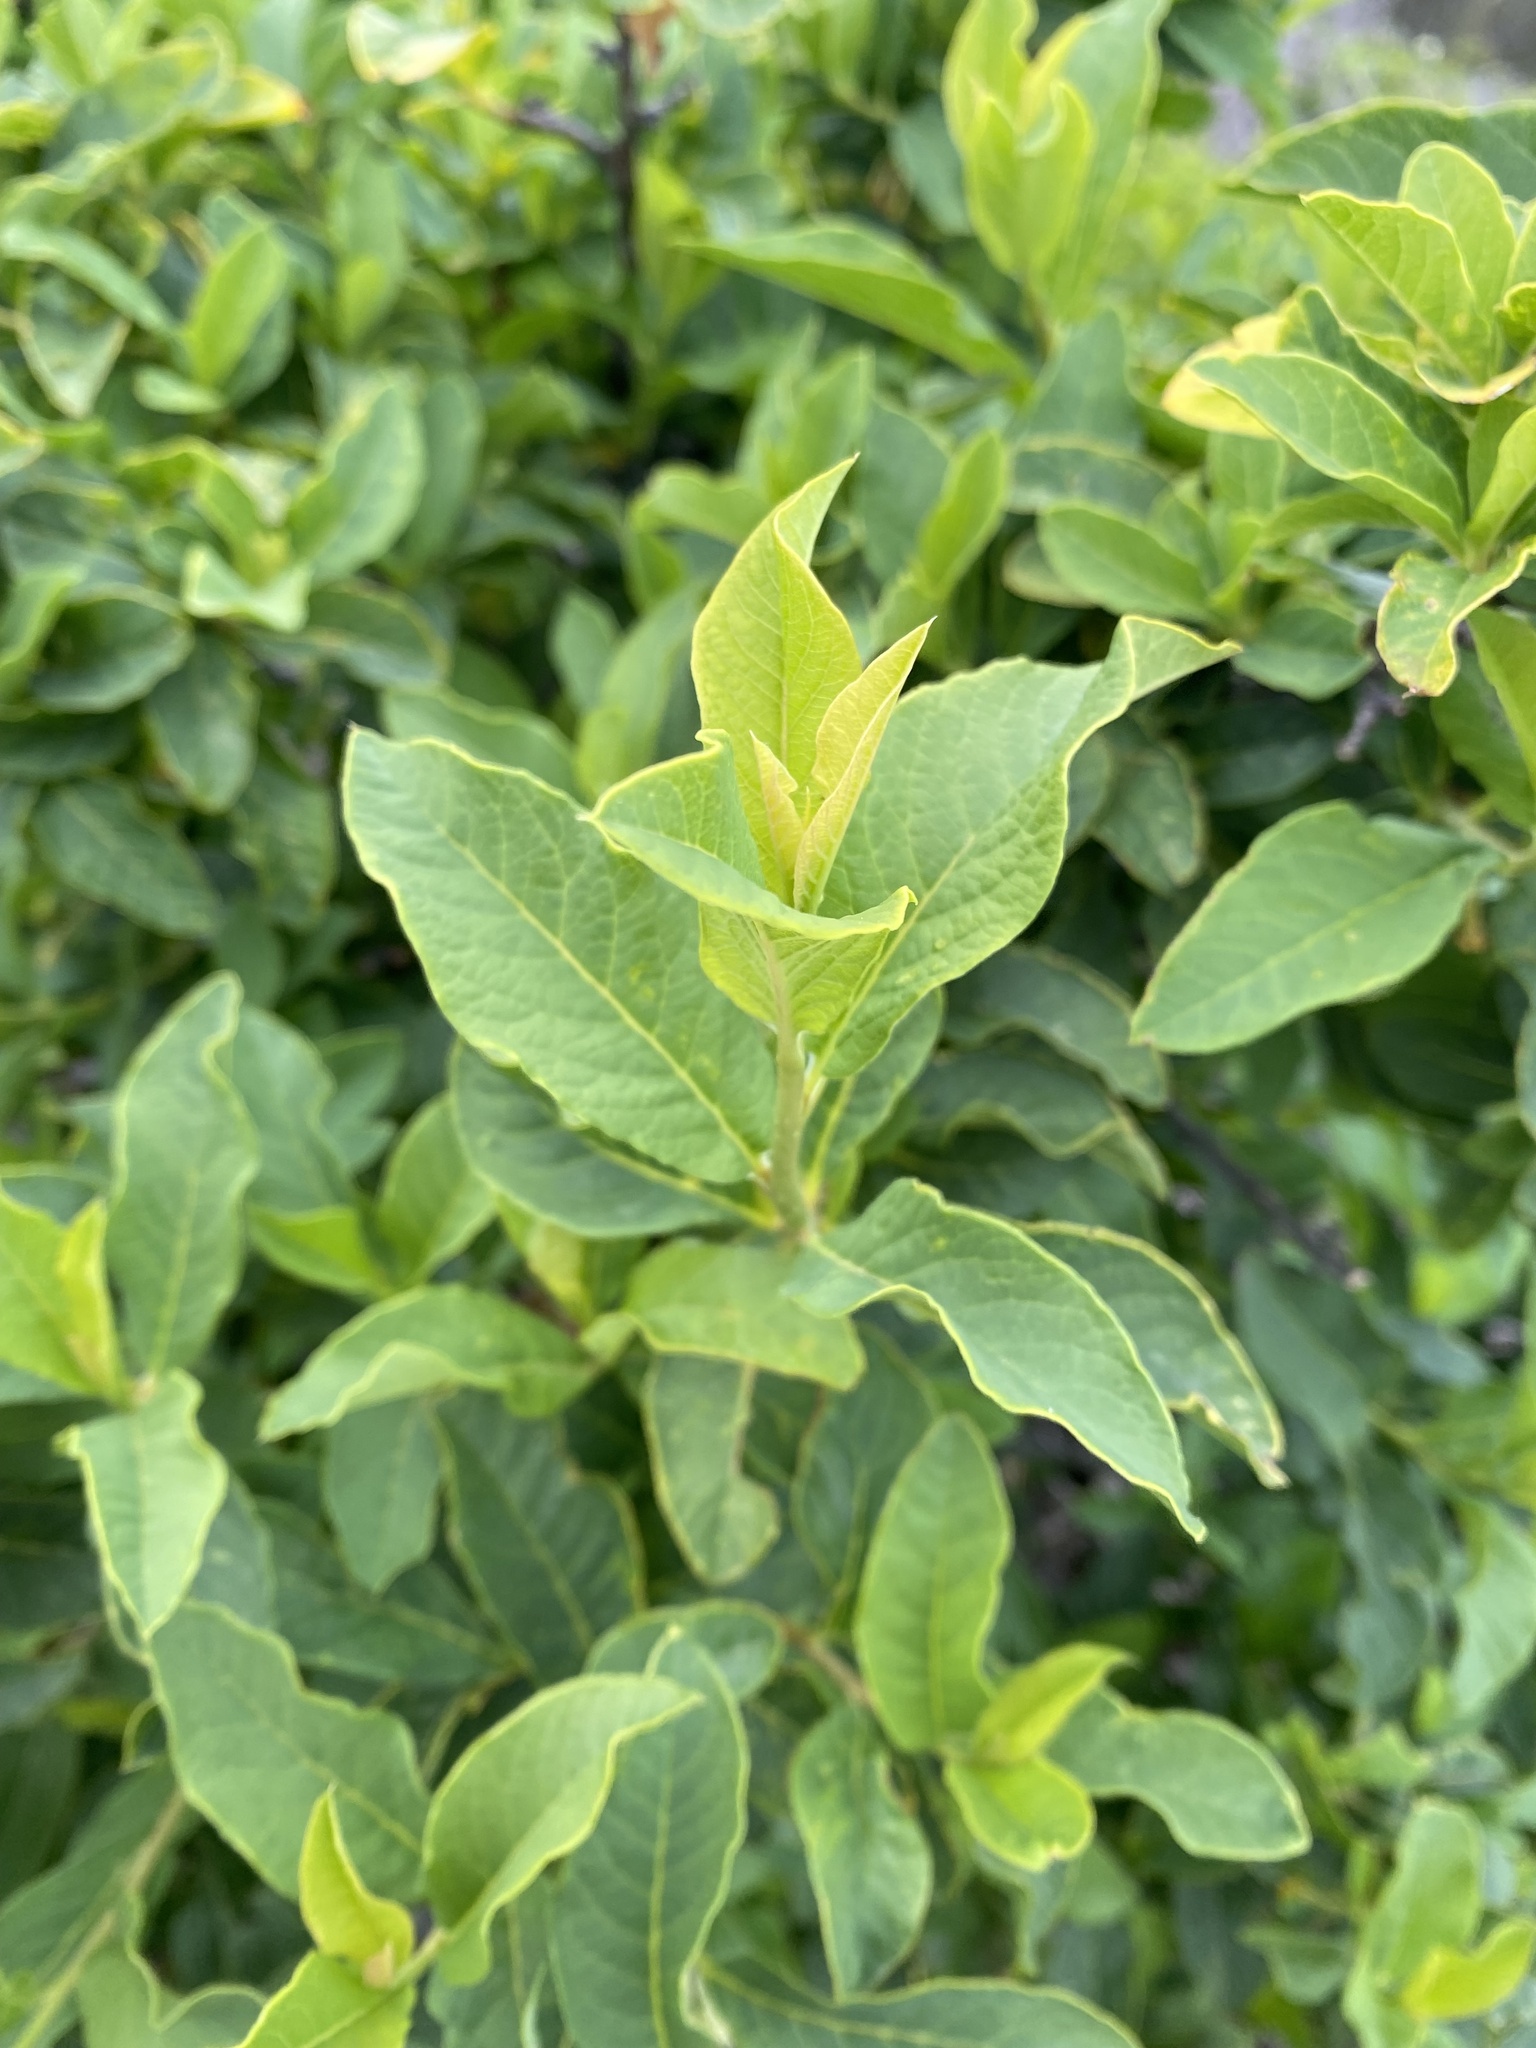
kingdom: Plantae
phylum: Tracheophyta
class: Magnoliopsida
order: Rosales
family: Rosaceae
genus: Oemleria
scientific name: Oemleria cerasiformis
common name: Osoberry
